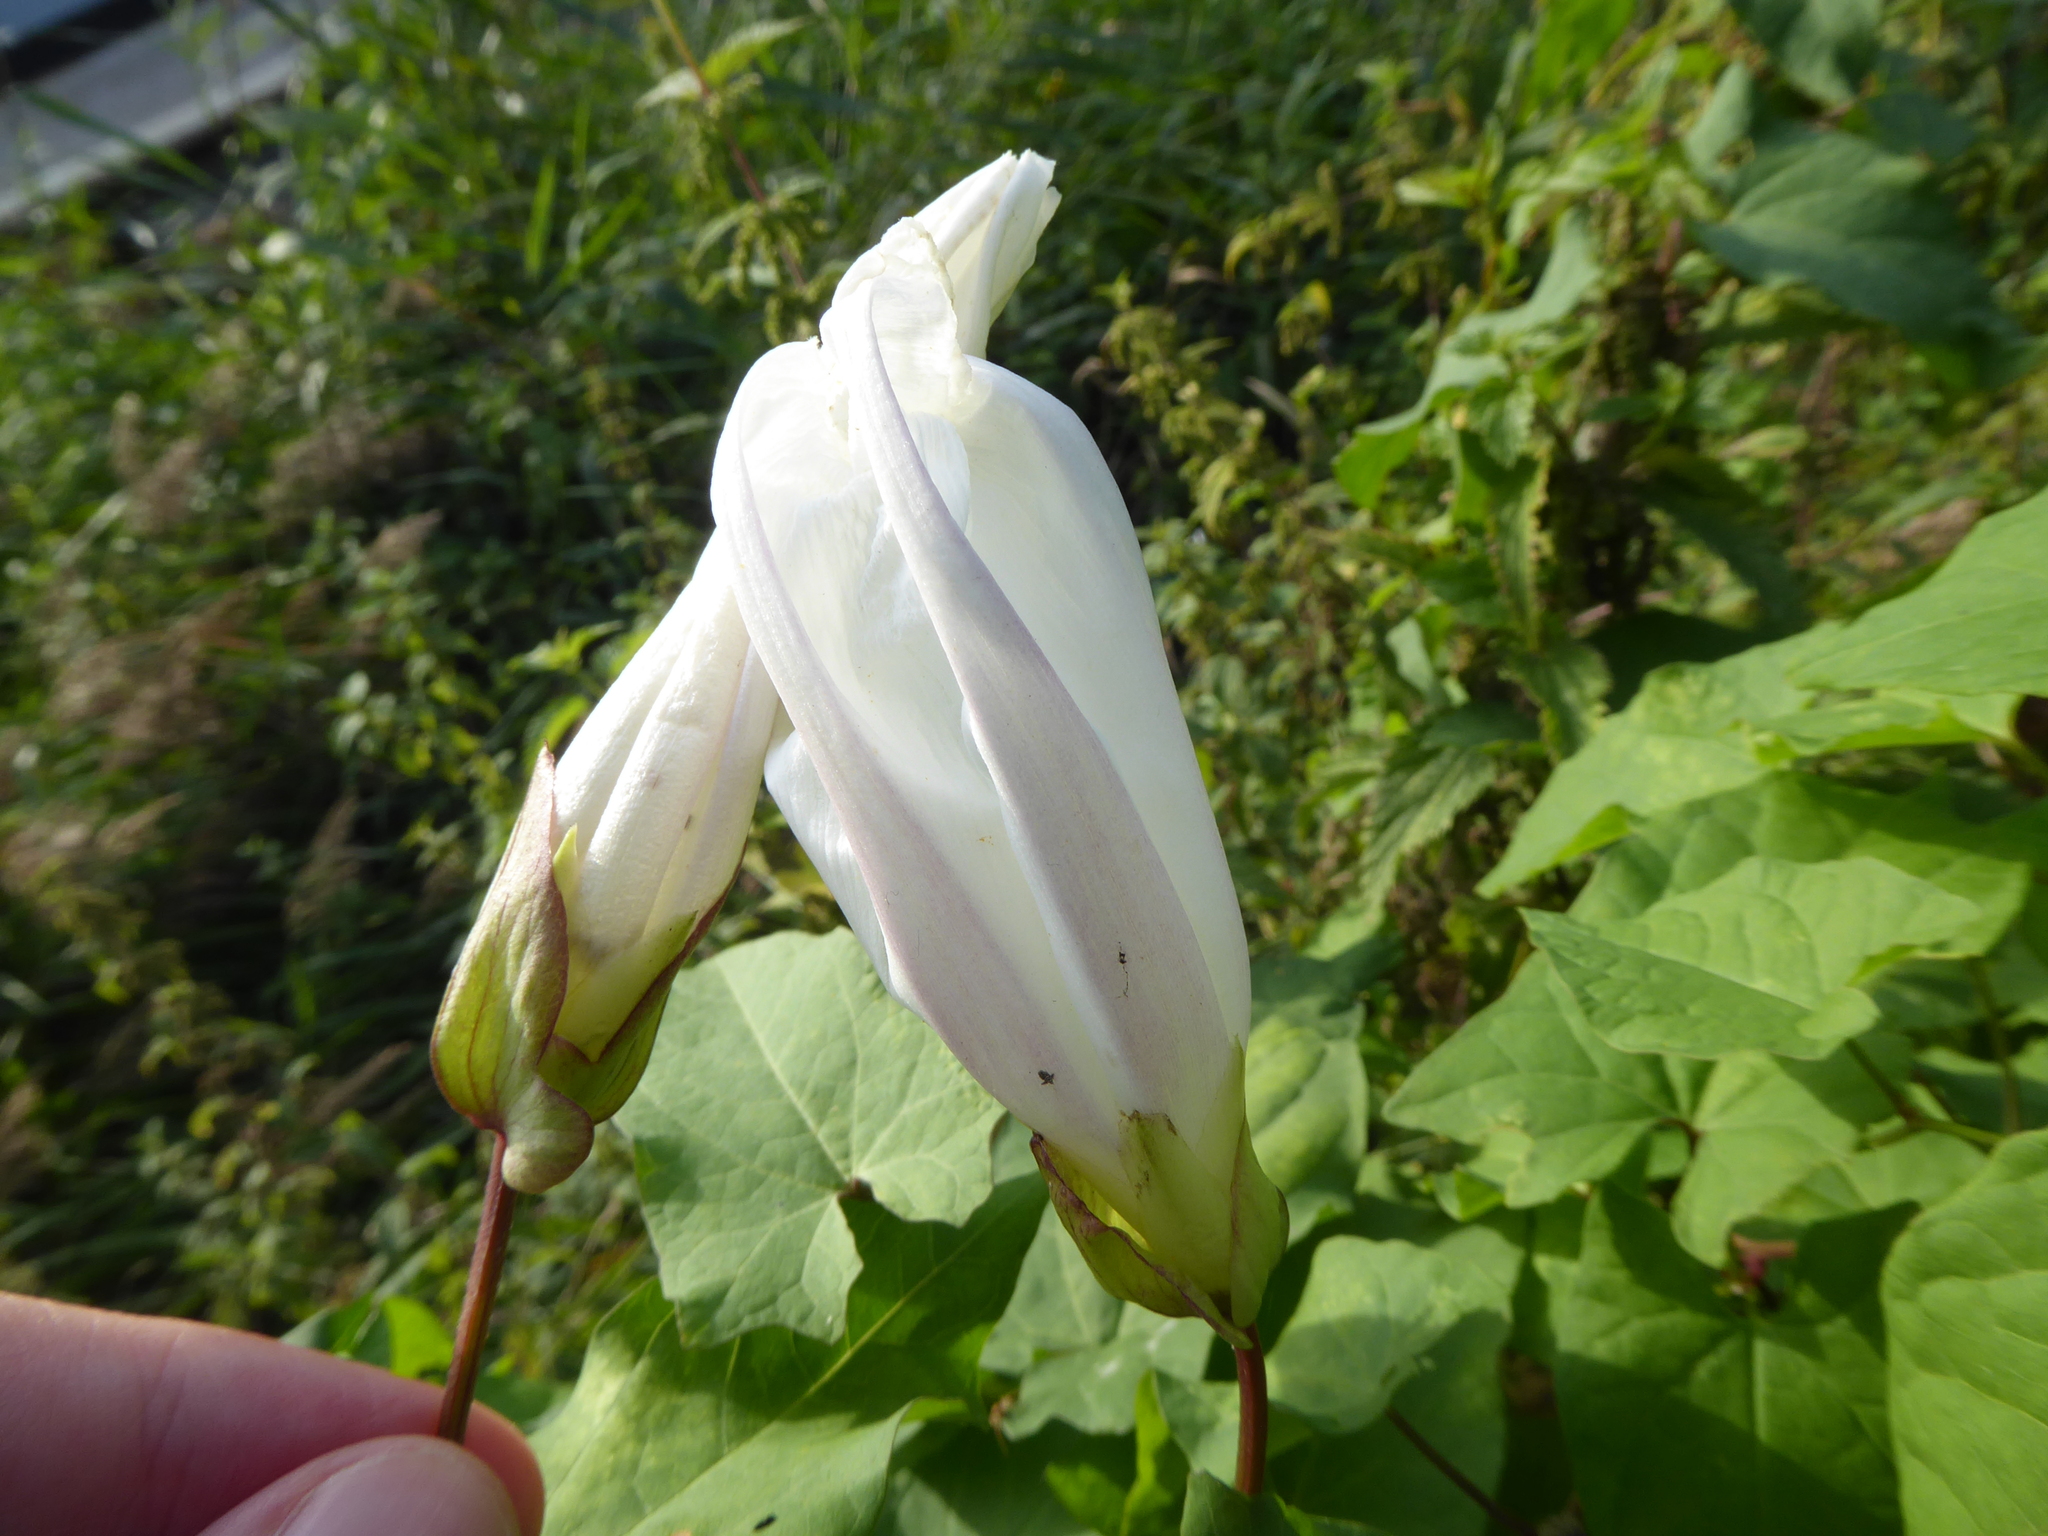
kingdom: Plantae
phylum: Tracheophyta
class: Magnoliopsida
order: Solanales
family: Convolvulaceae
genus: Calystegia
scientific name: Calystegia lucana
